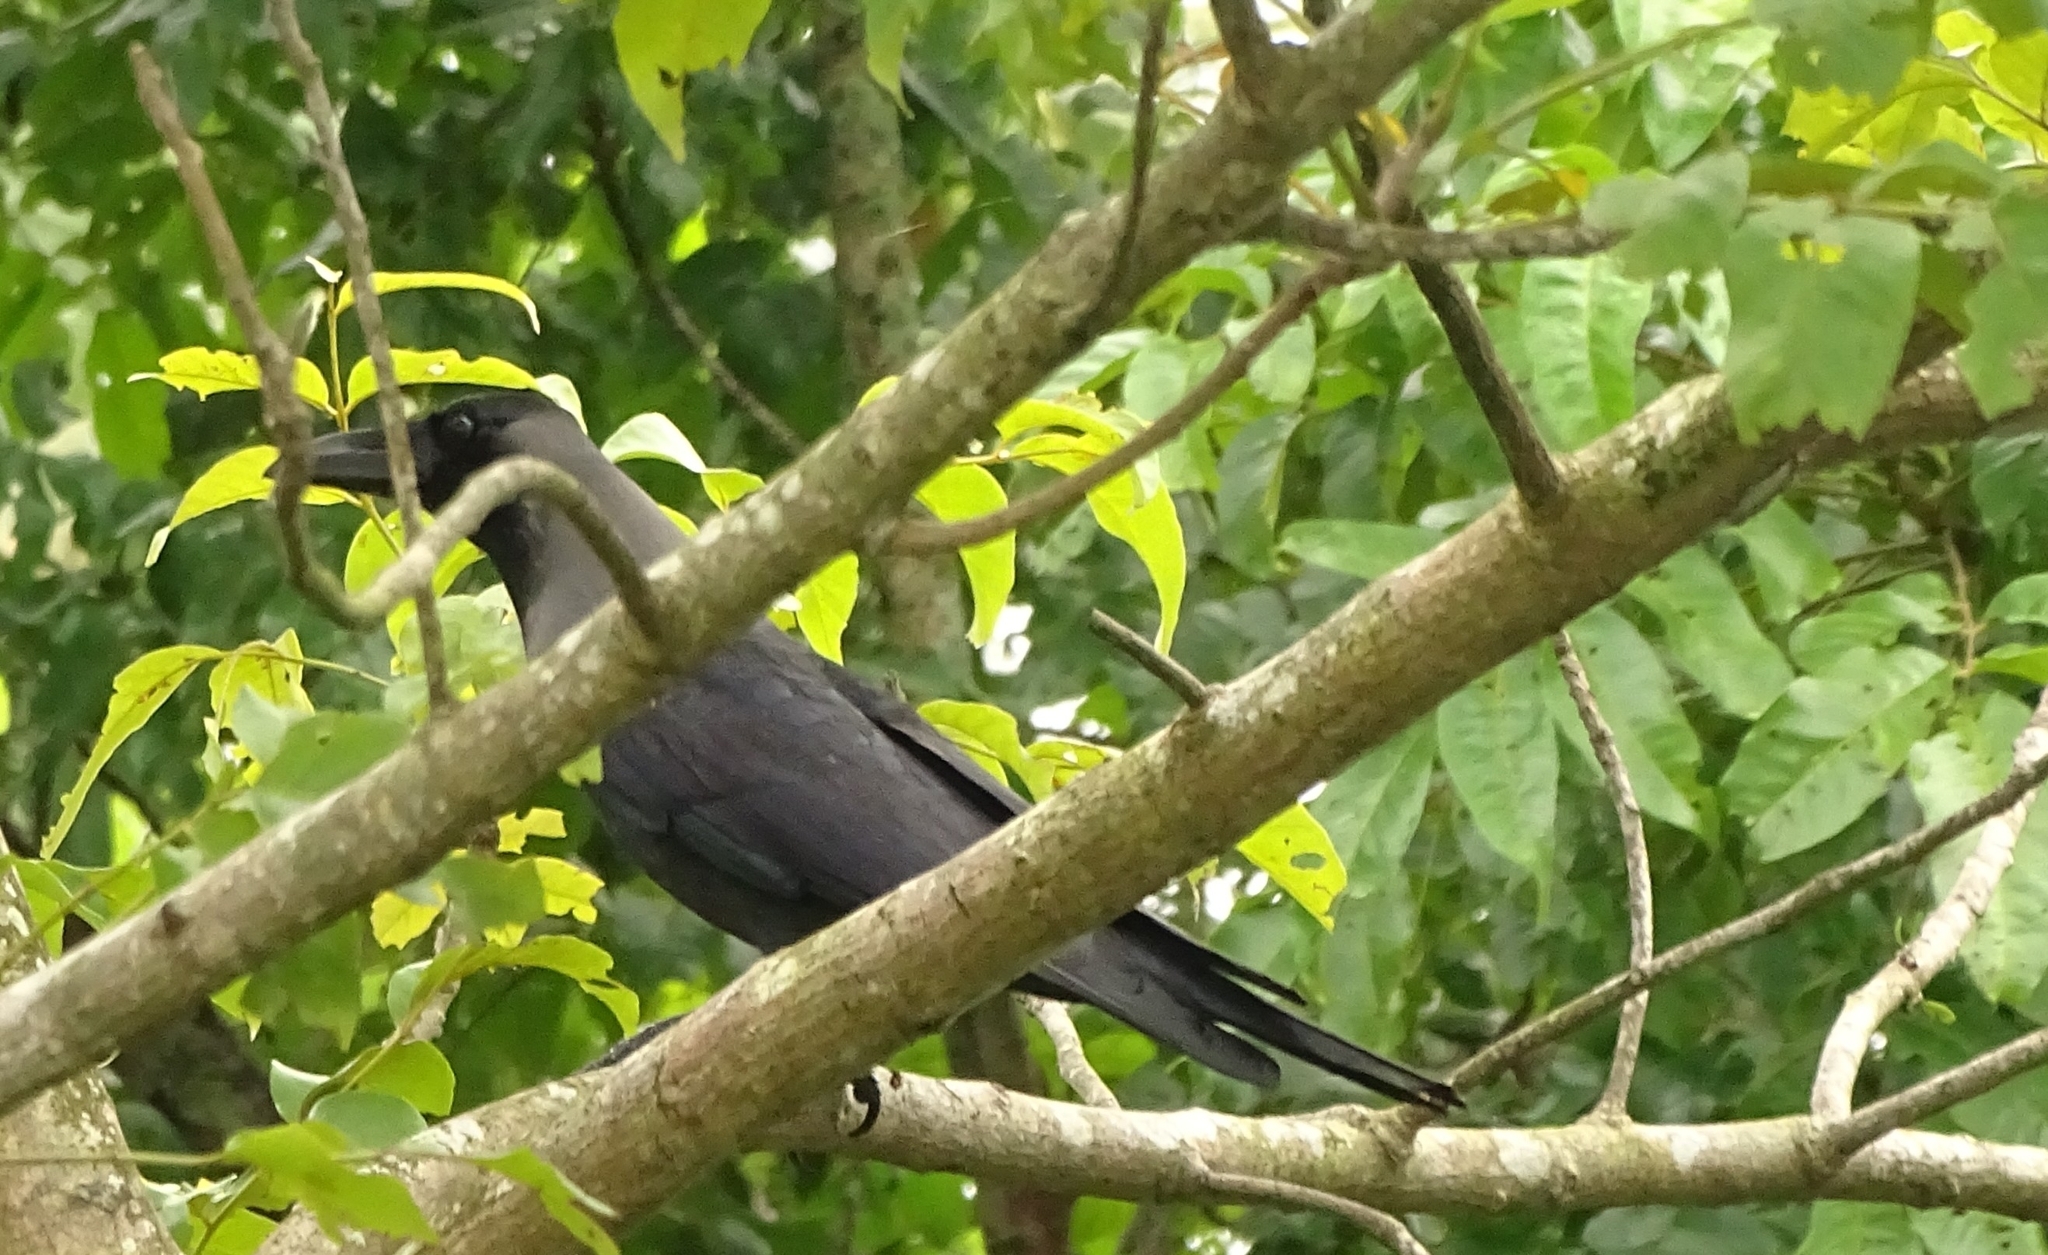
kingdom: Animalia
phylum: Chordata
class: Aves
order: Passeriformes
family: Corvidae
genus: Corvus
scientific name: Corvus splendens
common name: House crow
